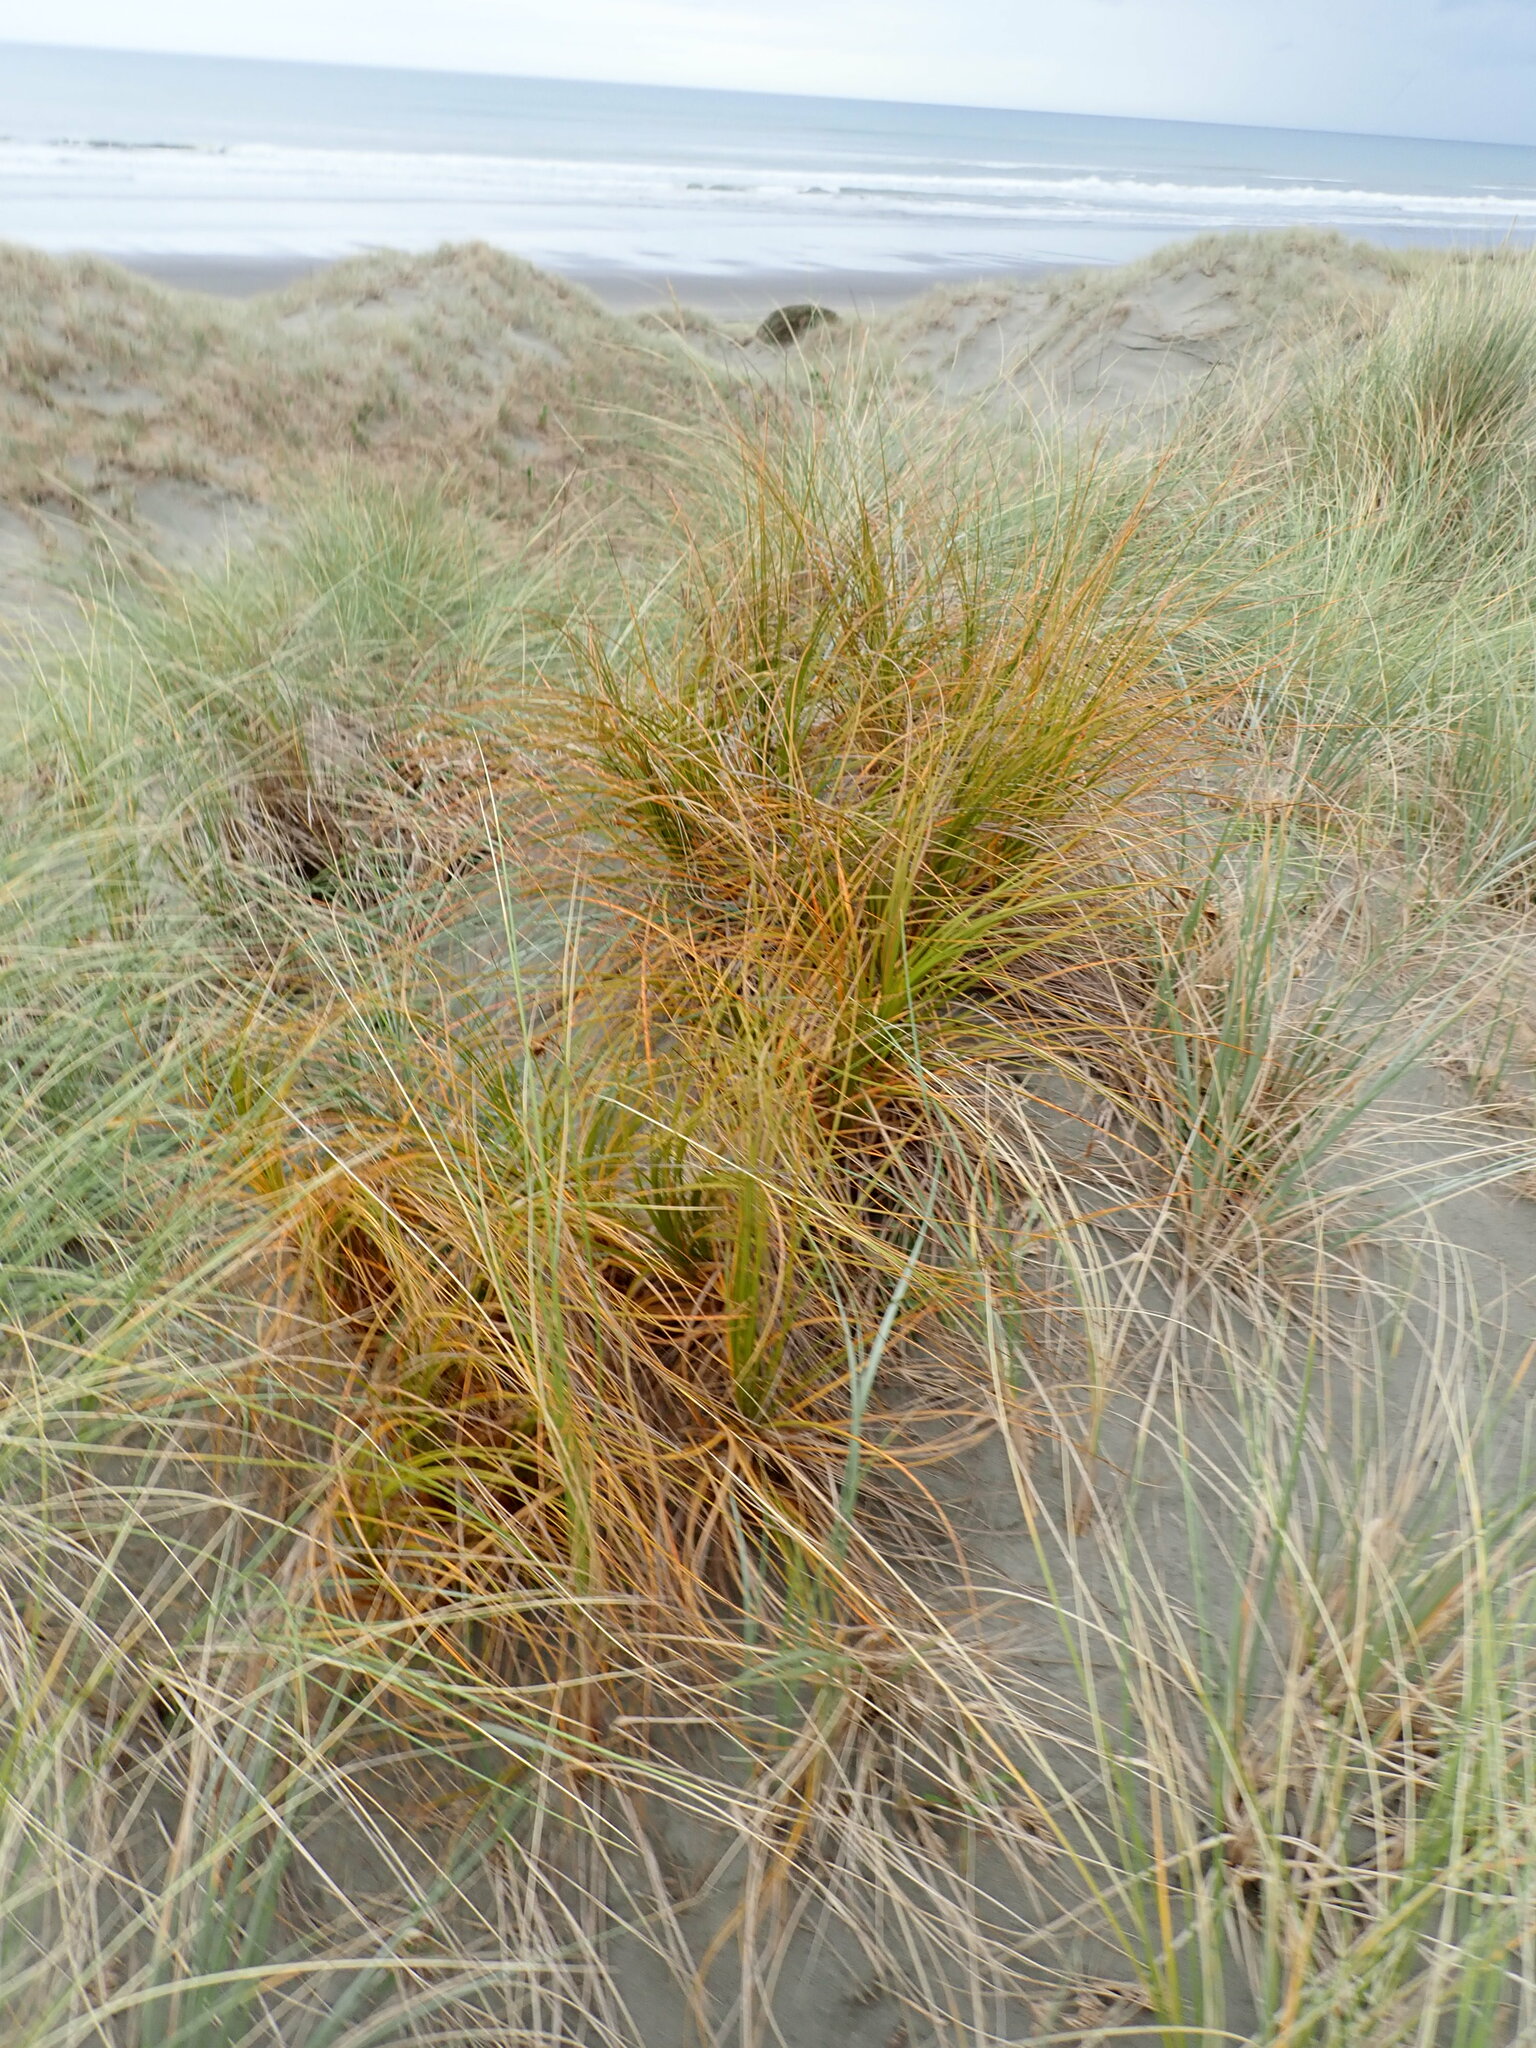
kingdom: Plantae
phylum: Tracheophyta
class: Liliopsida
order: Poales
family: Cyperaceae
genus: Ficinia
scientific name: Ficinia spiralis
